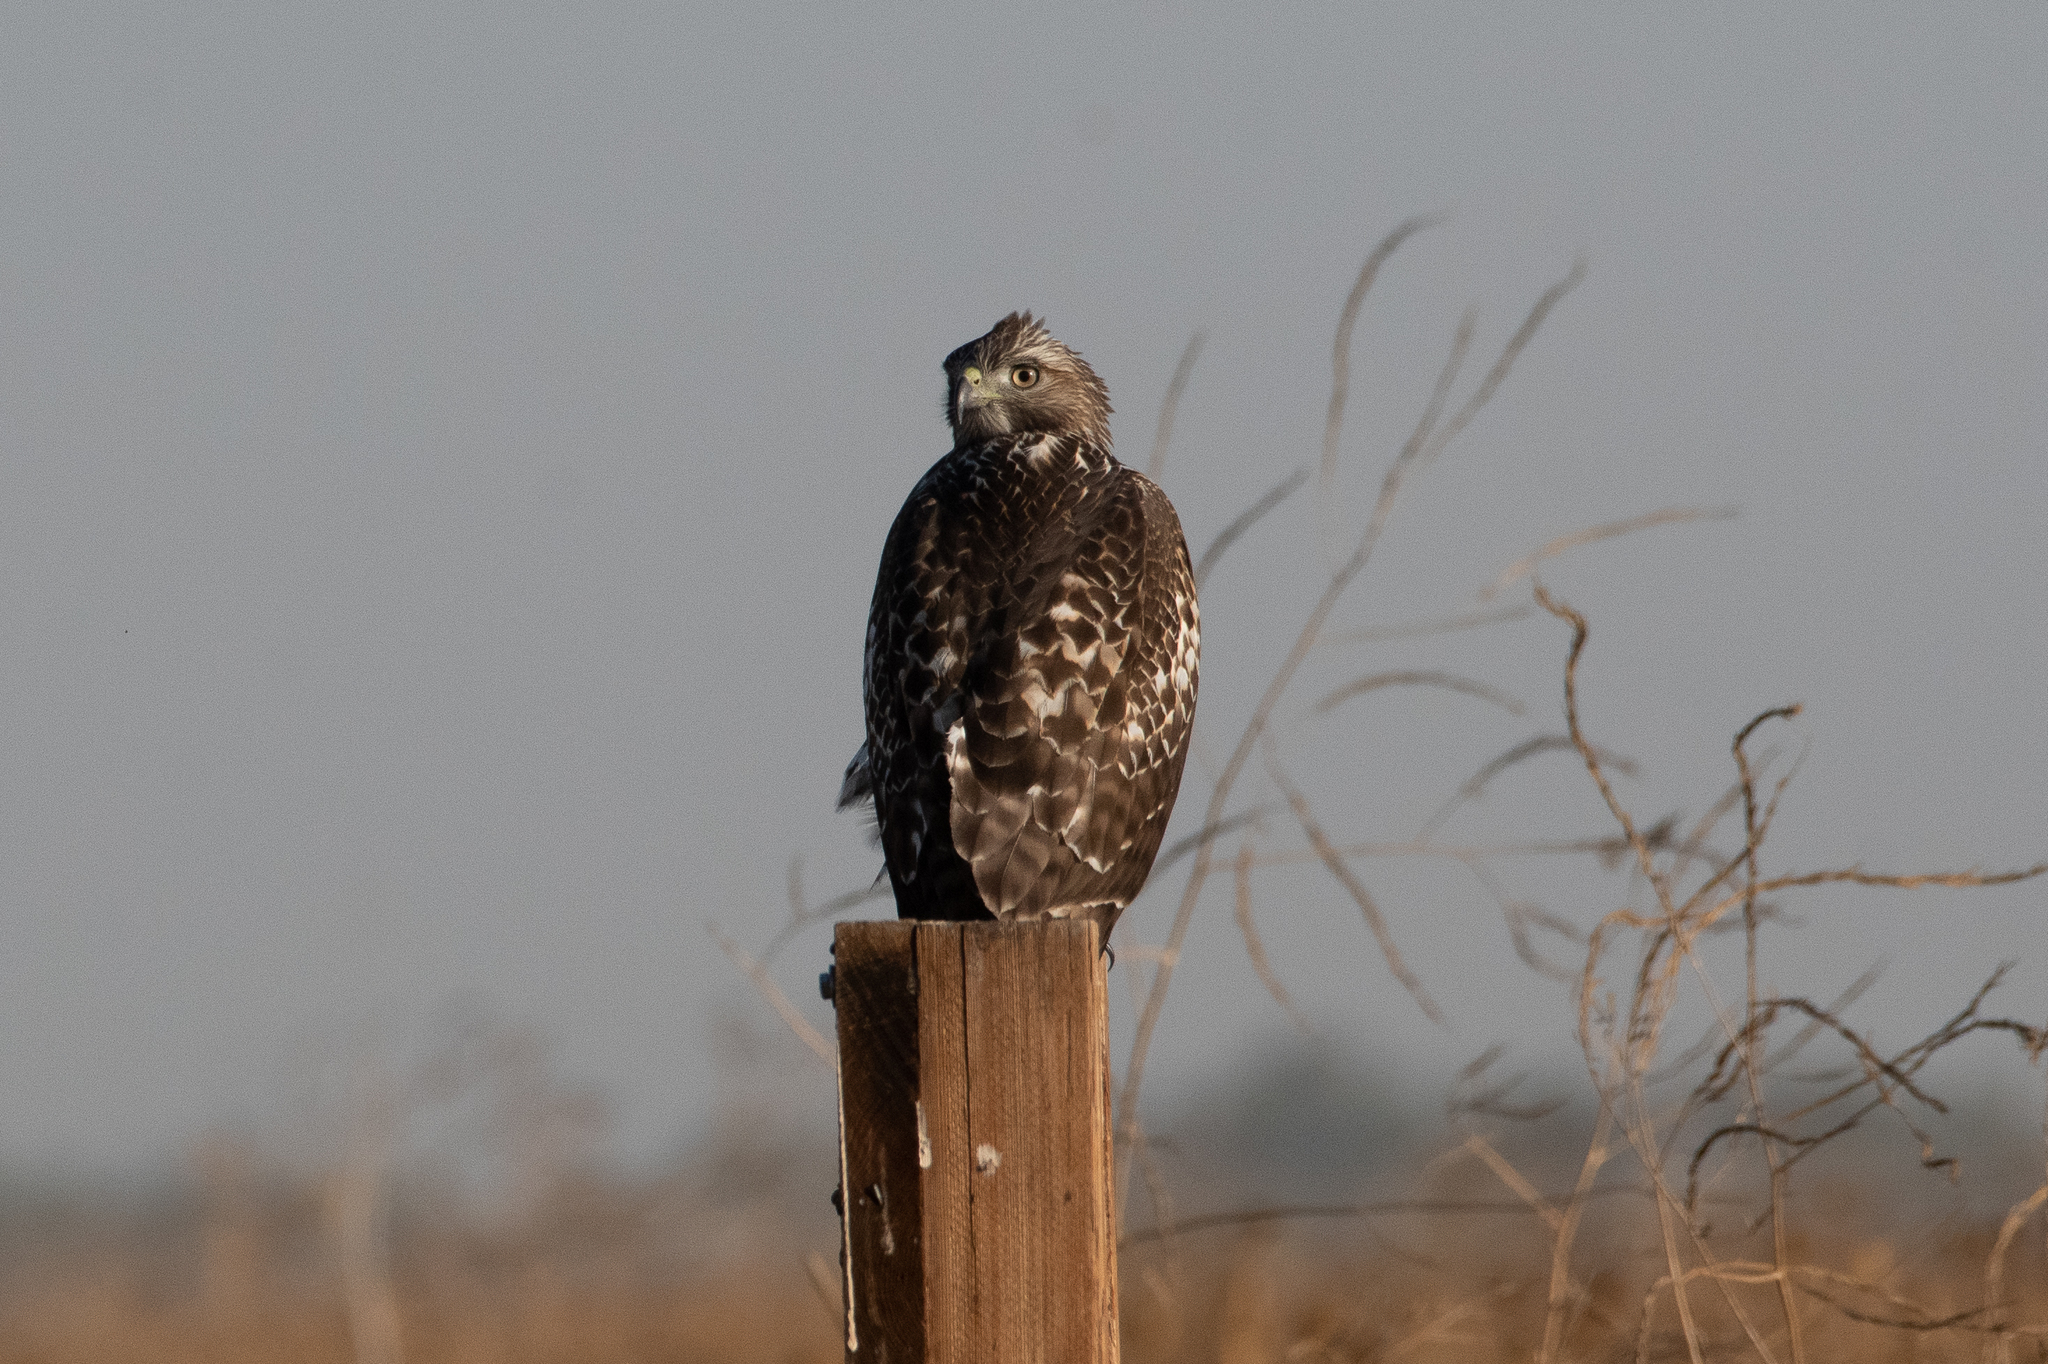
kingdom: Animalia
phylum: Chordata
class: Aves
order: Accipitriformes
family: Accipitridae
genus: Buteo
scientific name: Buteo jamaicensis
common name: Red-tailed hawk
